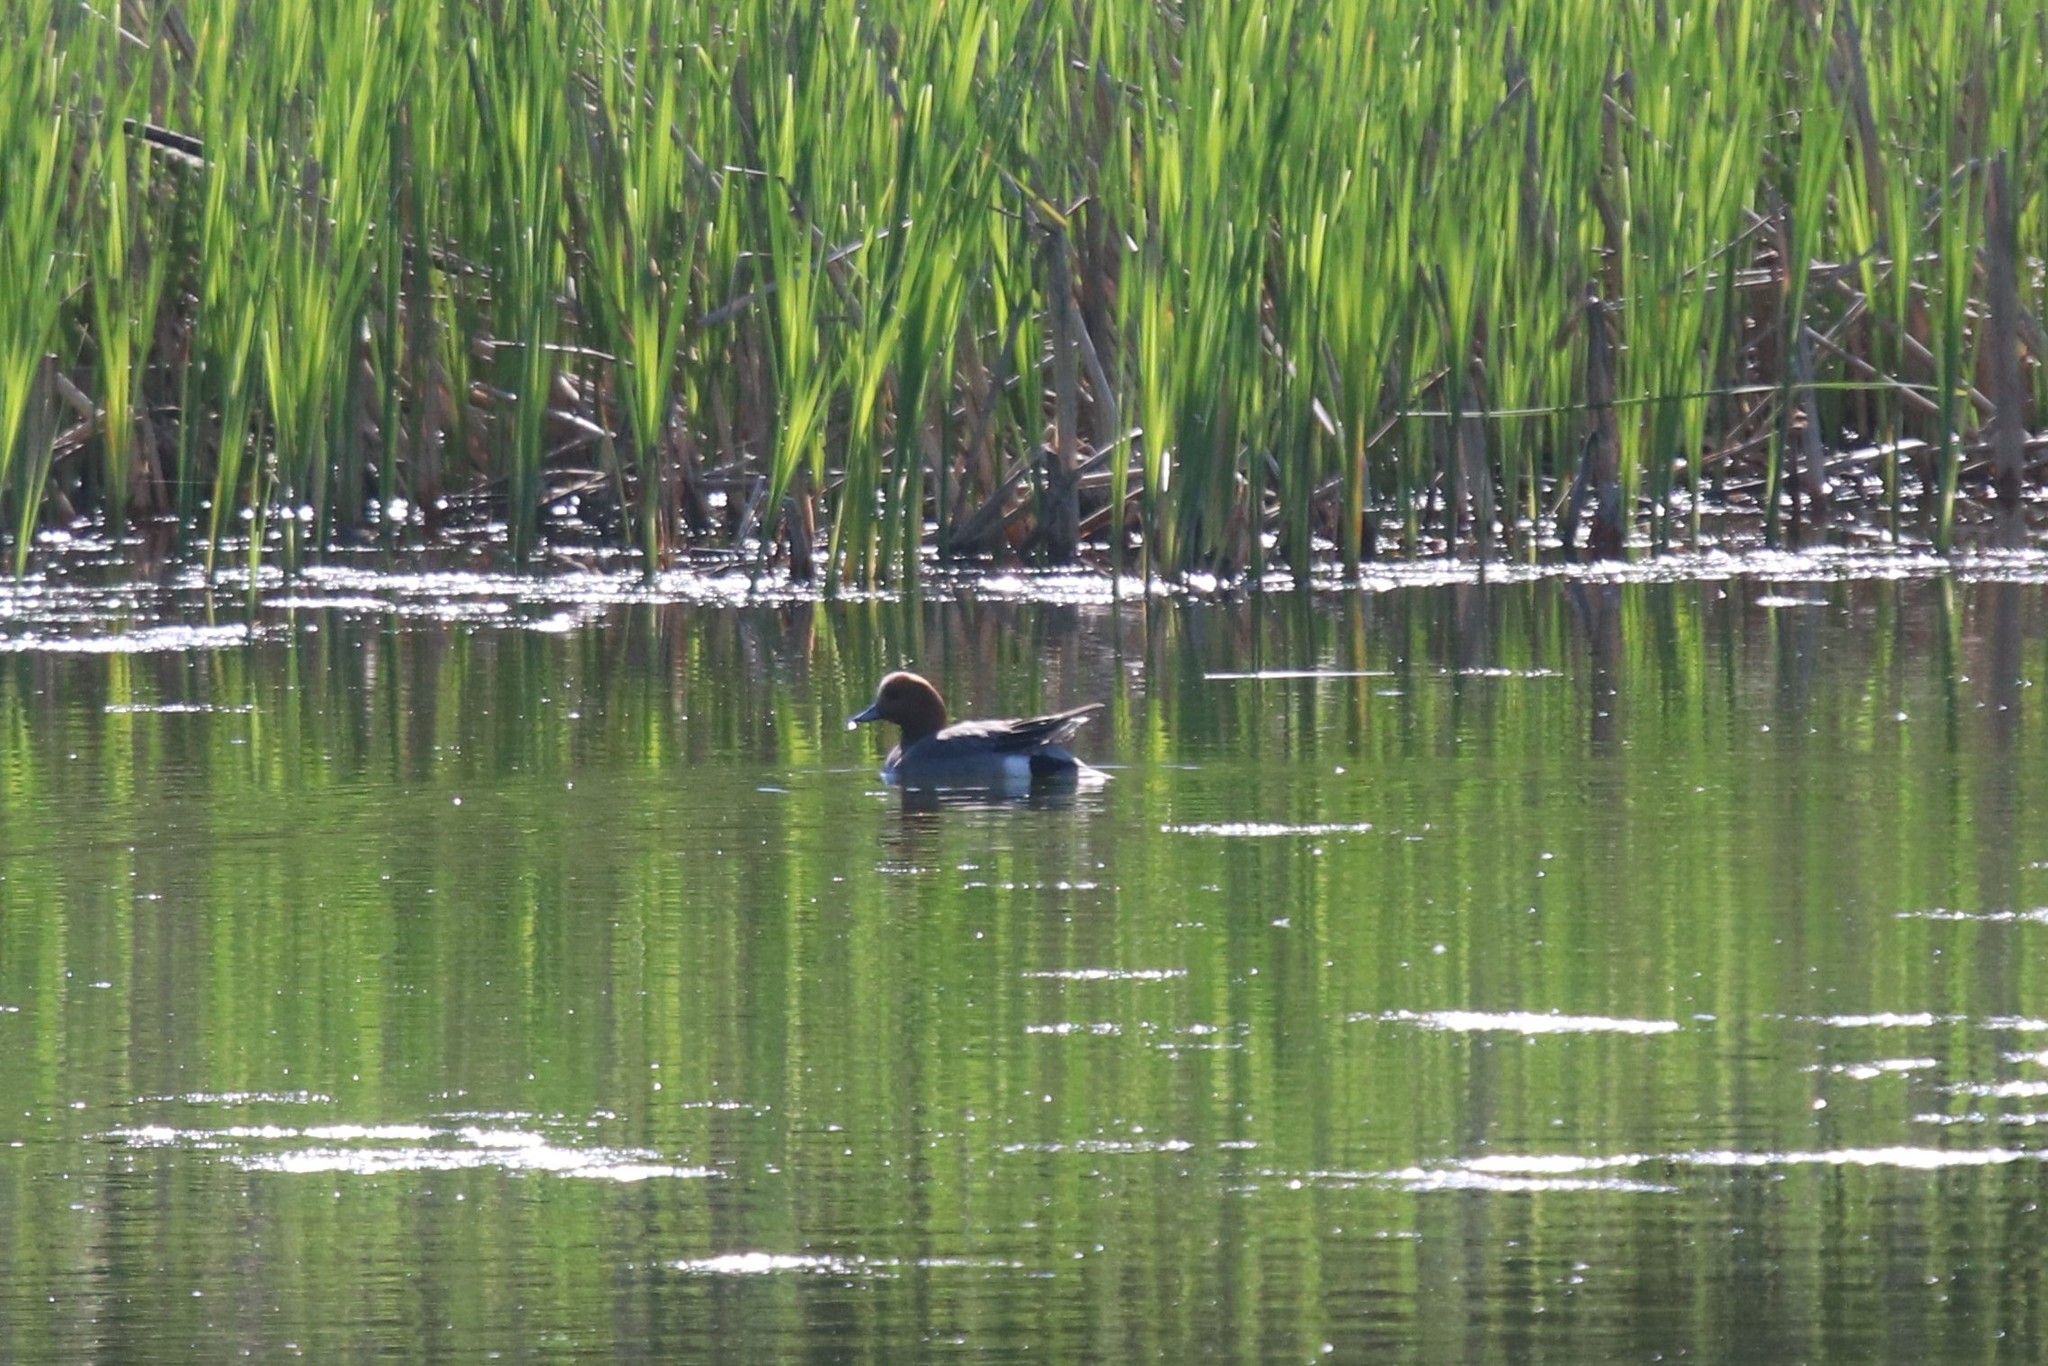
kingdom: Animalia
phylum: Chordata
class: Aves
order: Anseriformes
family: Anatidae
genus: Mareca
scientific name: Mareca penelope
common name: Eurasian wigeon
